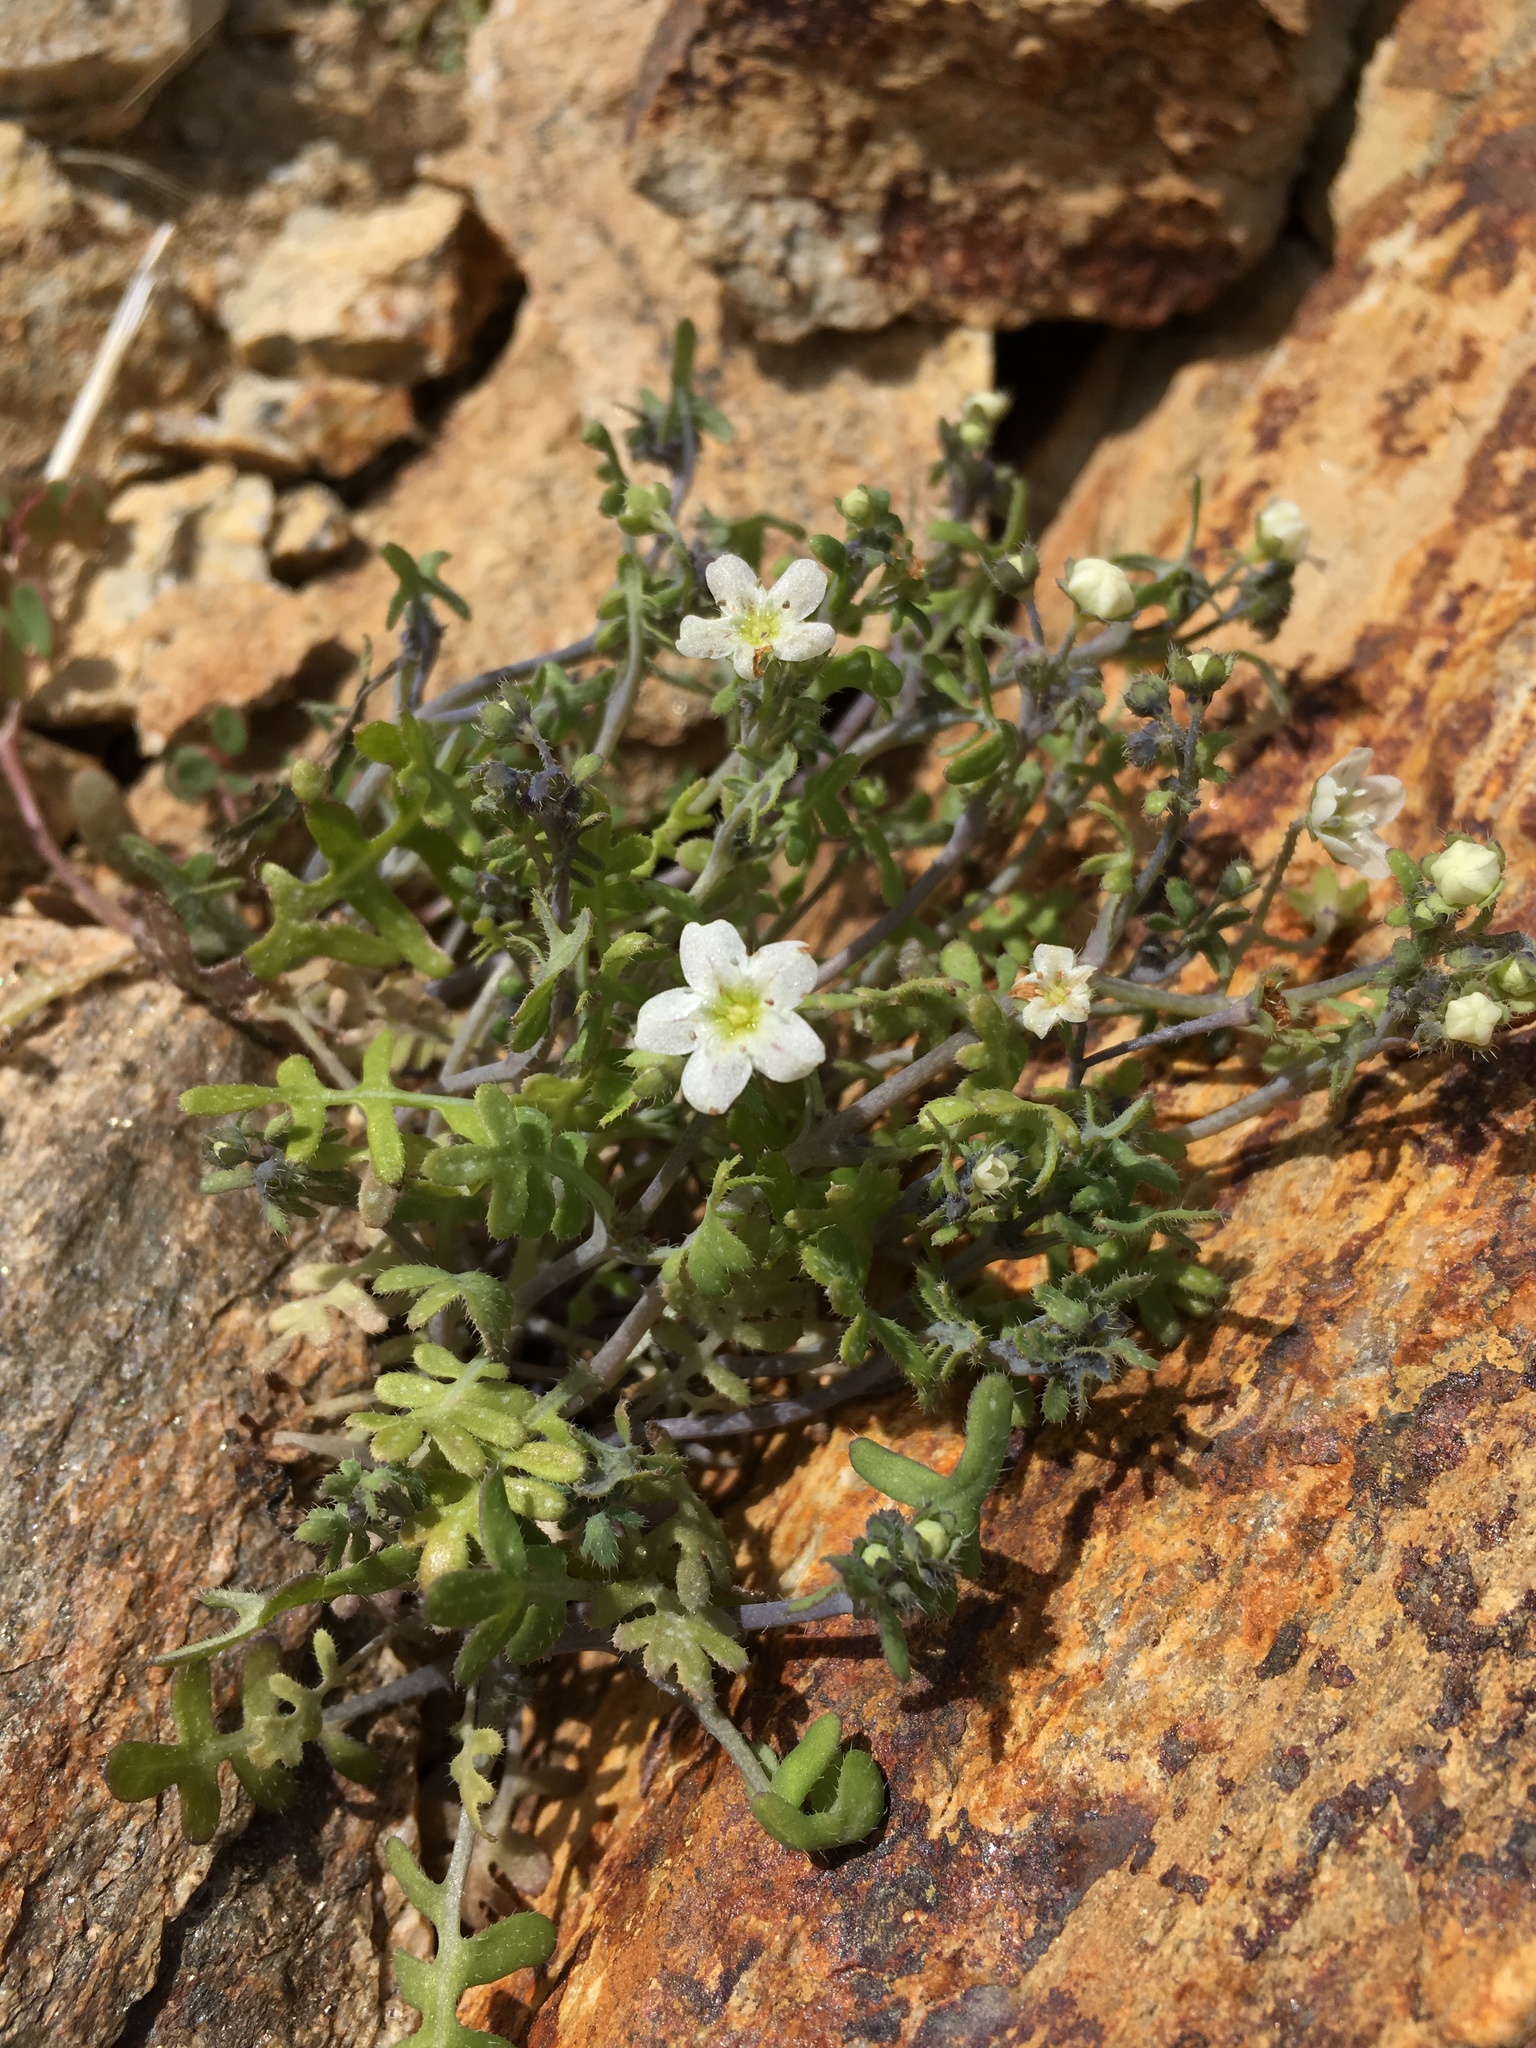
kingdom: Plantae
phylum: Tracheophyta
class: Magnoliopsida
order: Boraginales
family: Hydrophyllaceae
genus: Pholistoma
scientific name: Pholistoma membranaceum
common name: White fiesta-flower
